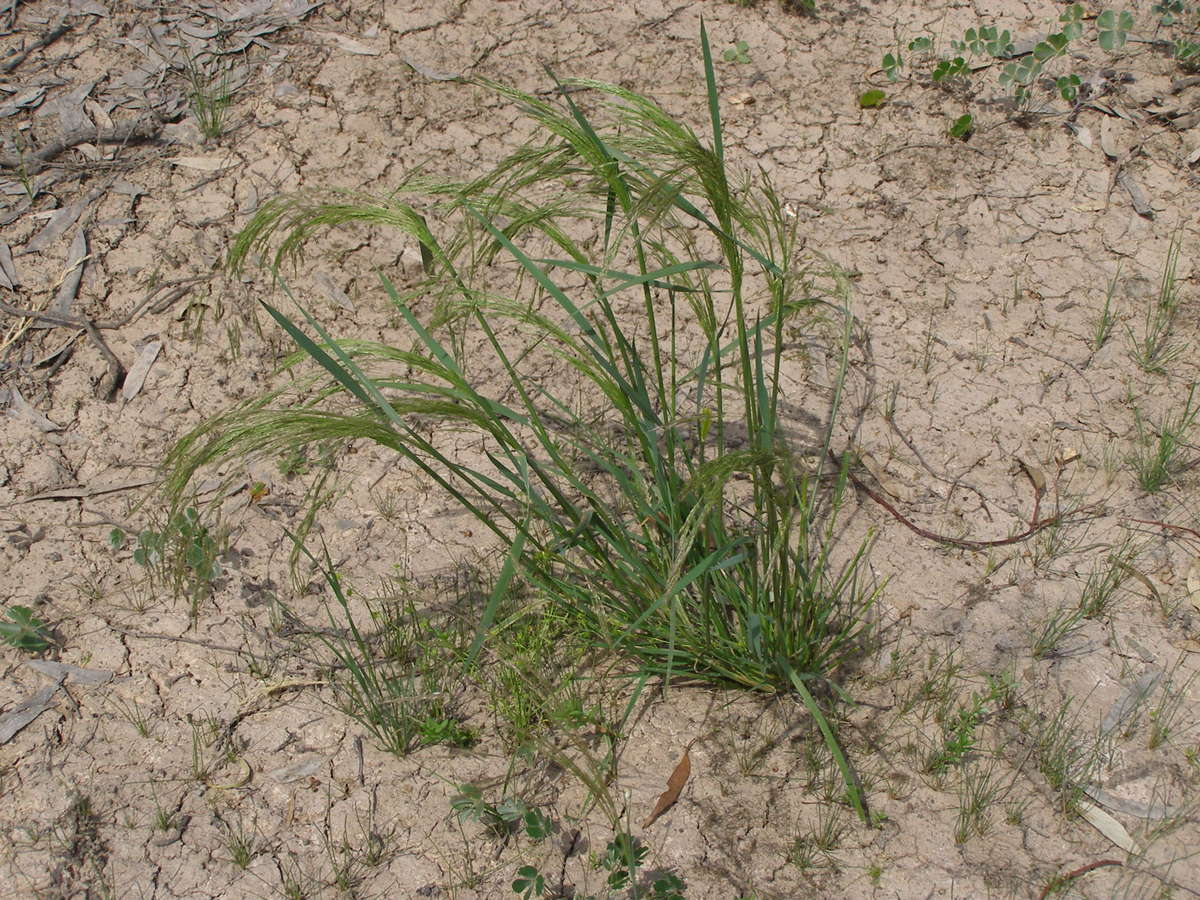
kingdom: Plantae
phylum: Tracheophyta
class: Liliopsida
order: Poales
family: Poaceae
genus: Lachnagrostis
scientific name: Lachnagrostis filiformis
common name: Bentgrass
